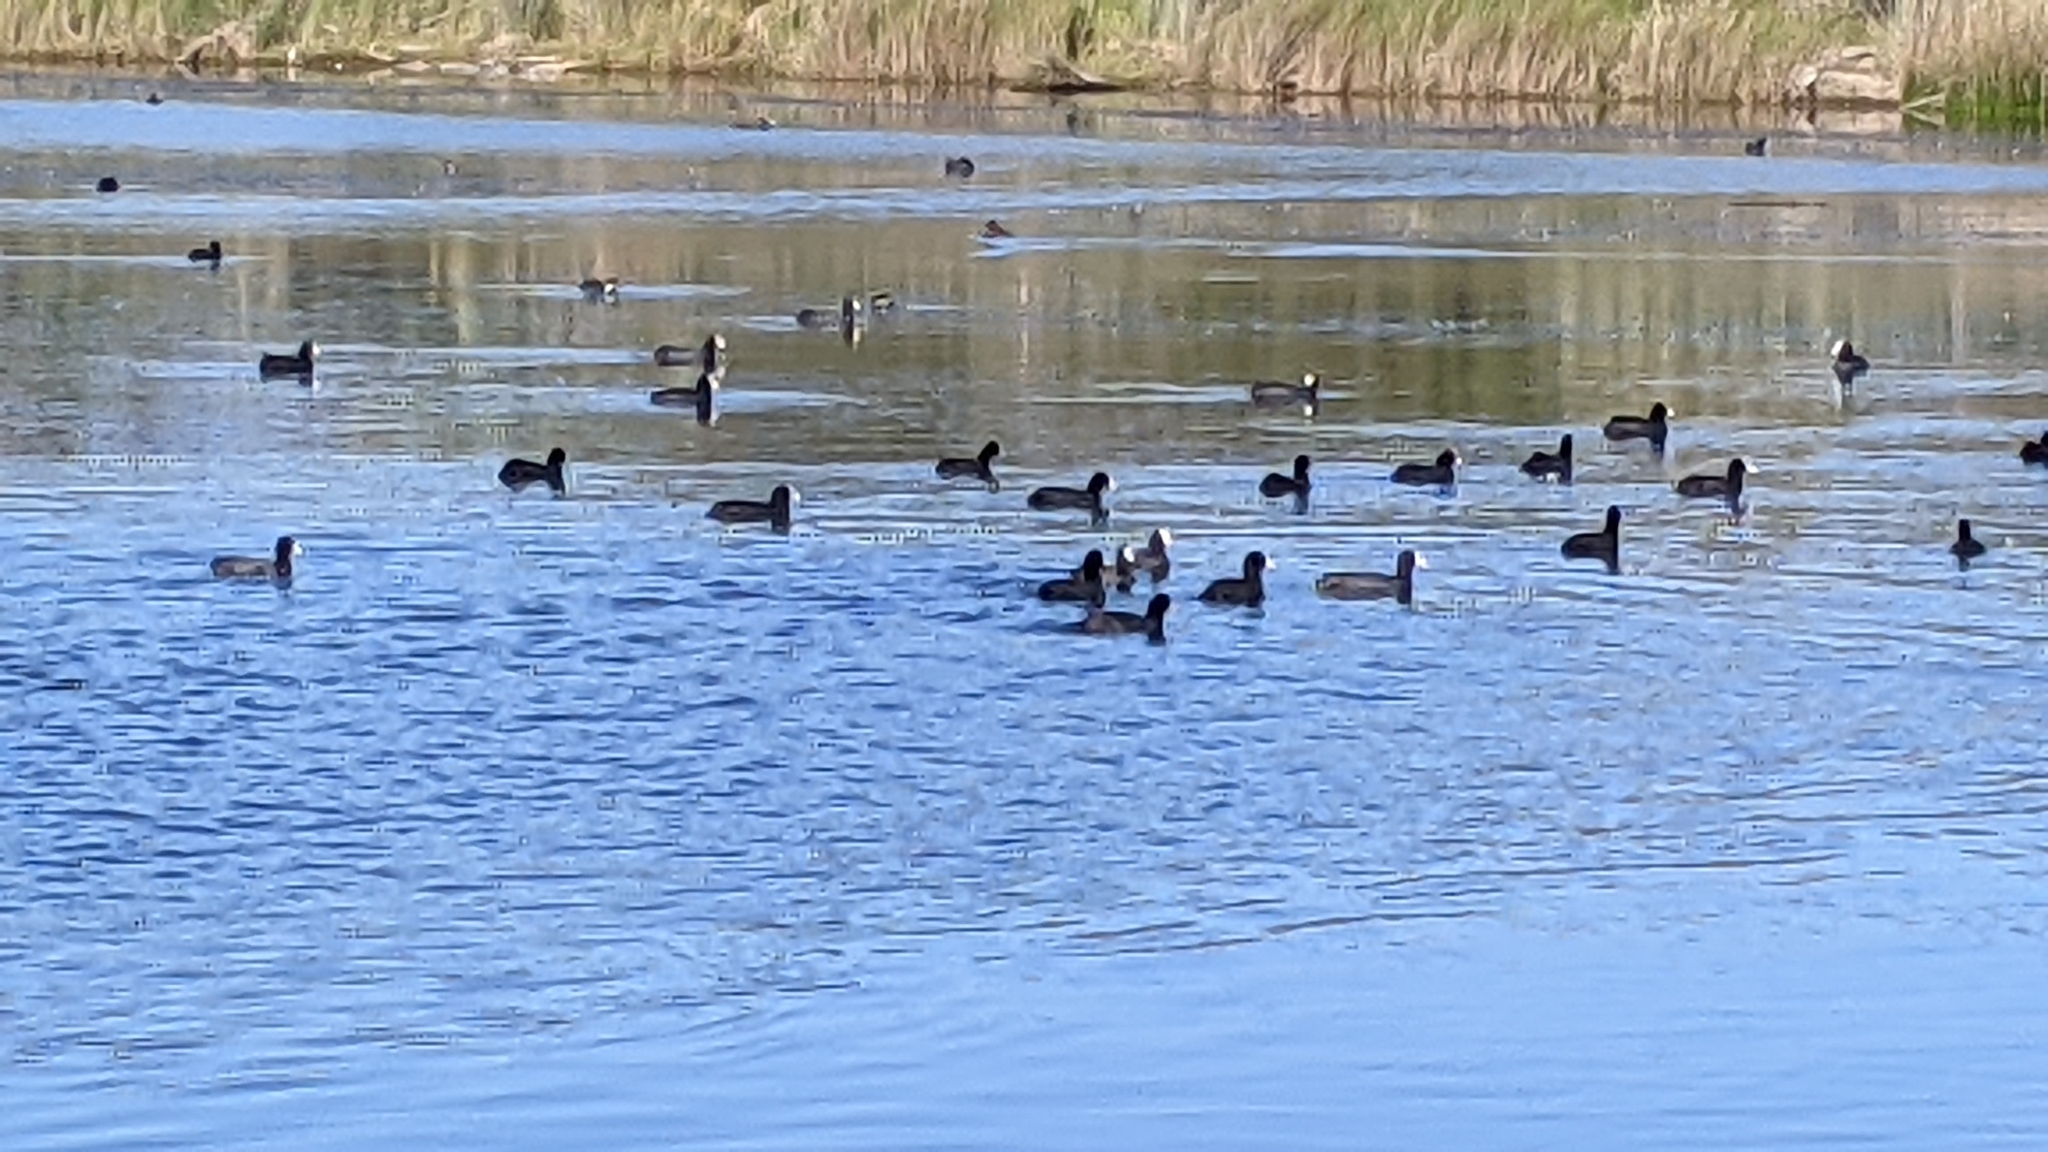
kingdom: Animalia
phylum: Chordata
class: Aves
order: Gruiformes
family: Rallidae
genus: Fulica
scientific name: Fulica atra
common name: Eurasian coot
